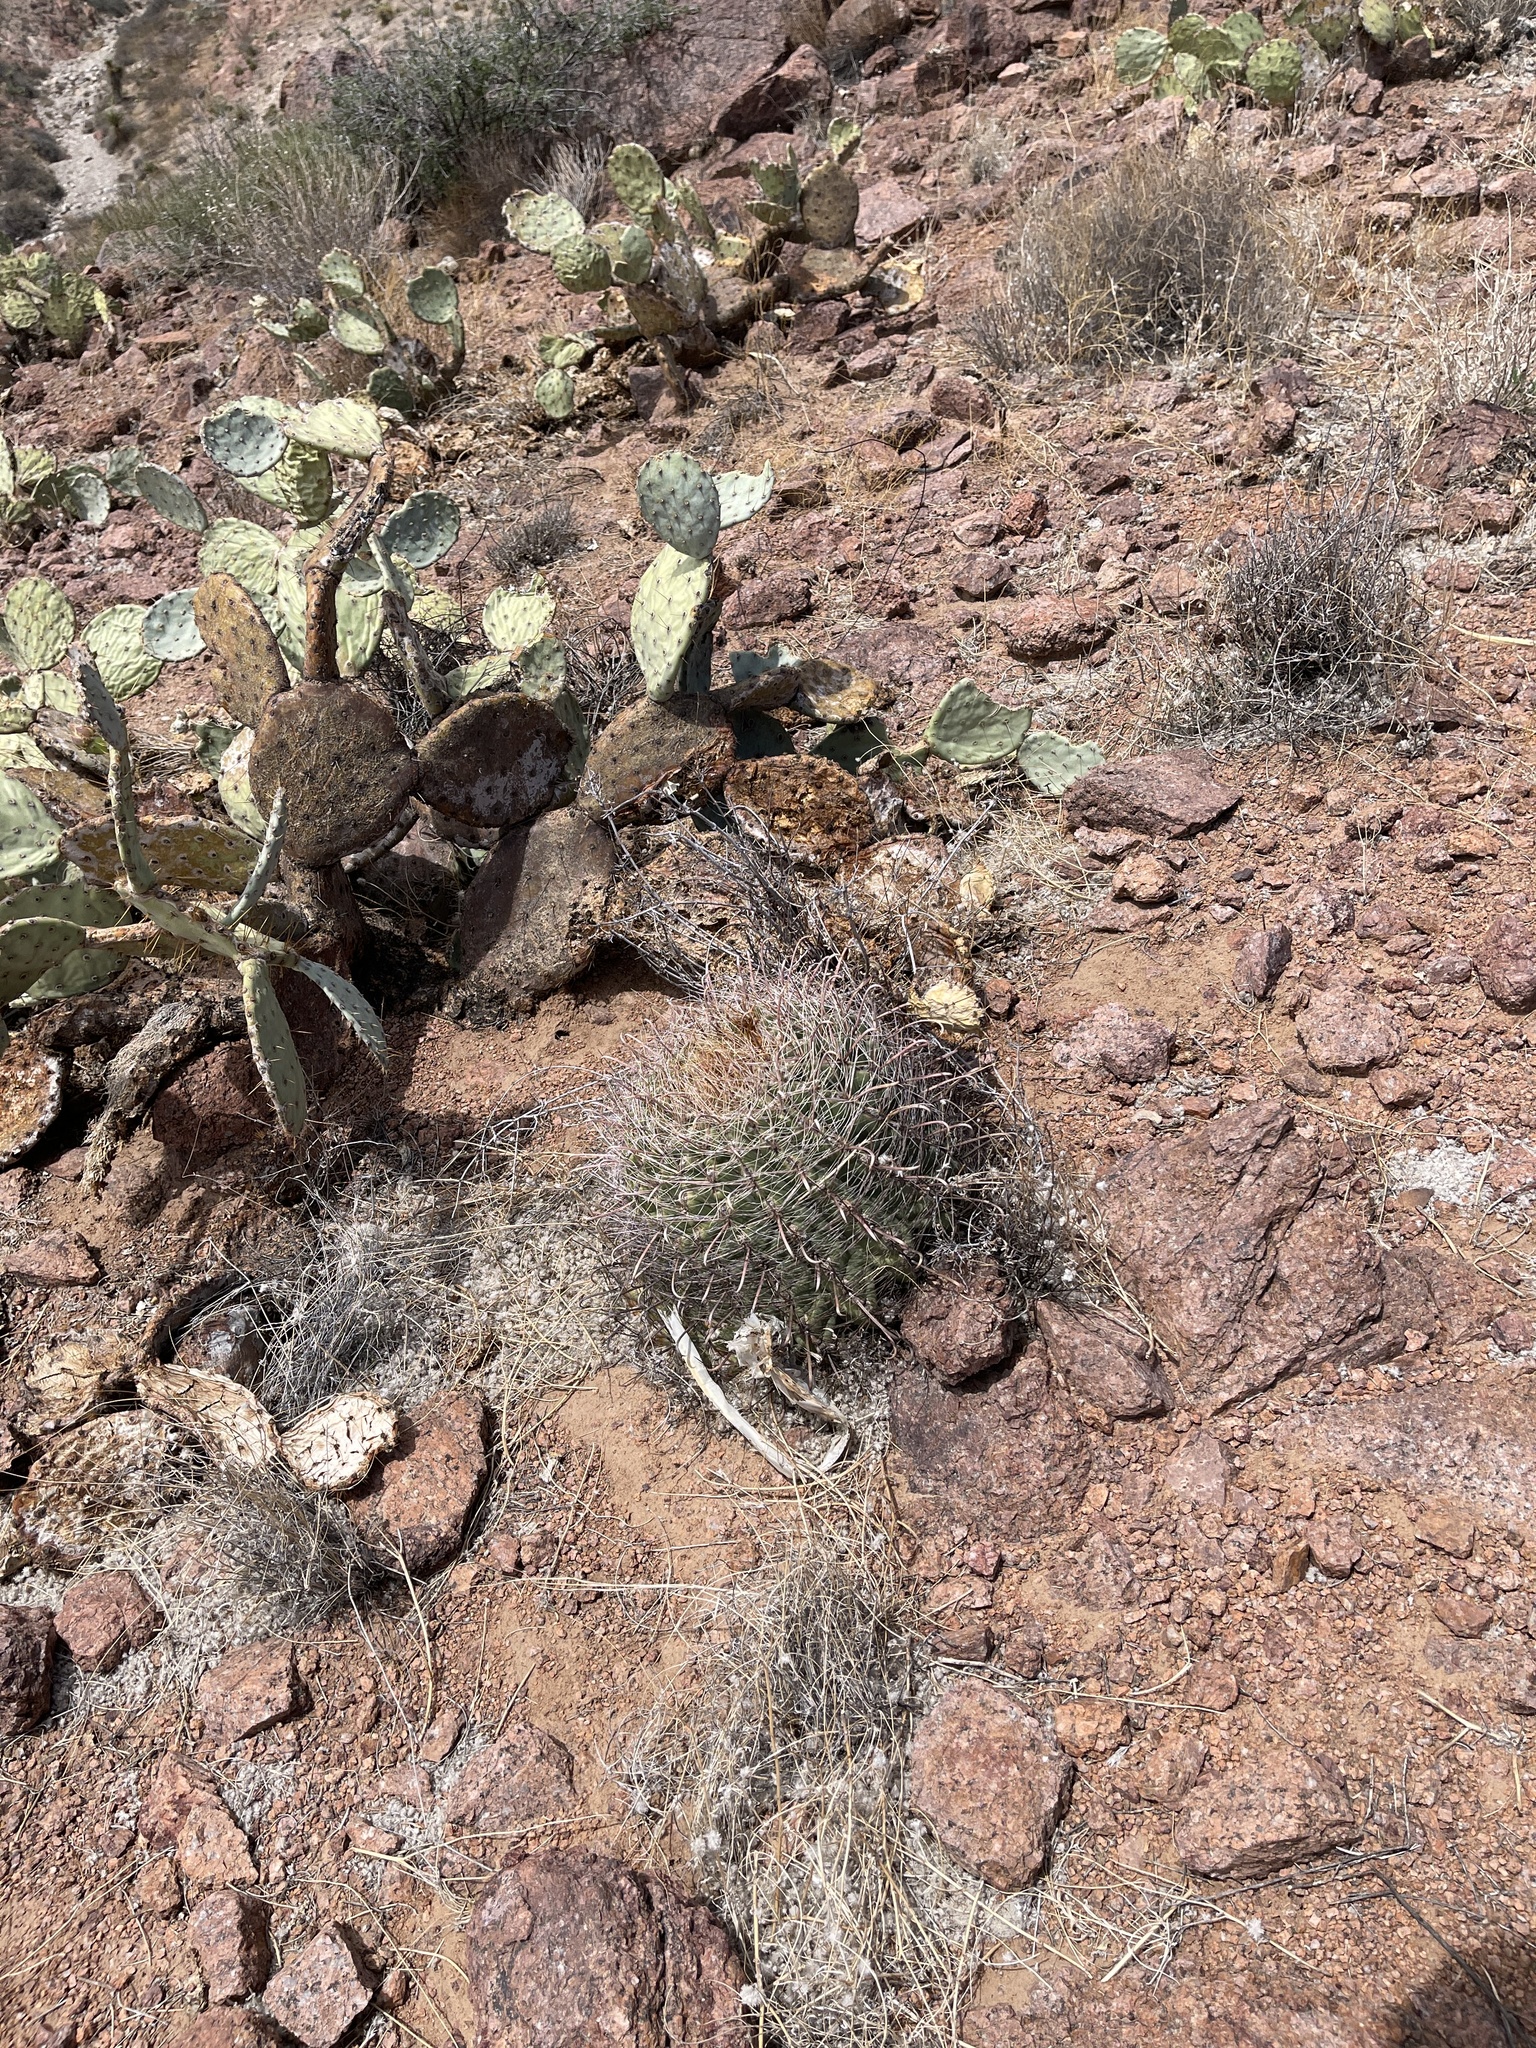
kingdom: Plantae
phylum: Tracheophyta
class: Magnoliopsida
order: Caryophyllales
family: Cactaceae
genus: Ferocactus
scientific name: Ferocactus wislizeni
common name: Candy barrel cactus
